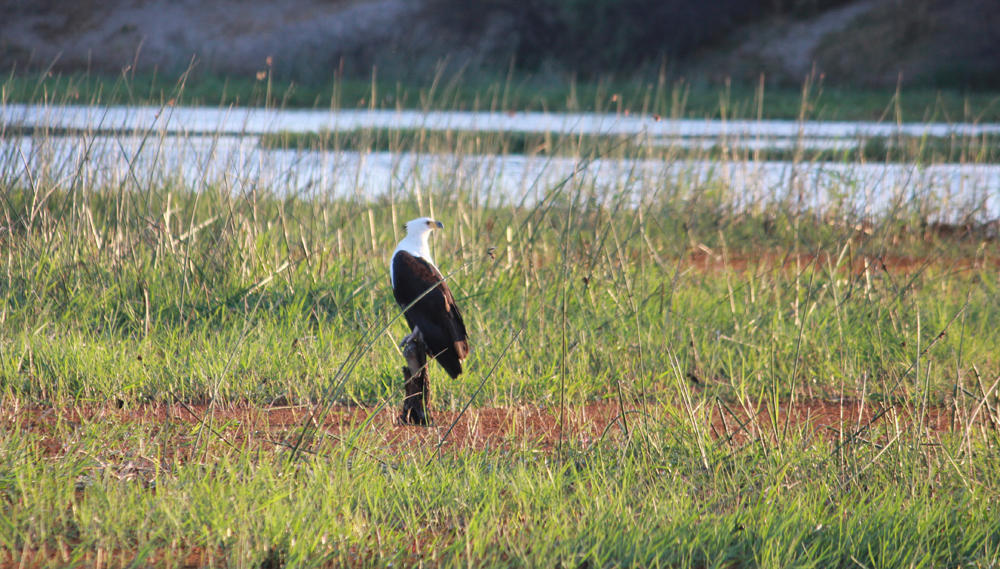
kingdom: Animalia
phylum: Chordata
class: Aves
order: Accipitriformes
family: Accipitridae
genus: Haliaeetus
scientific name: Haliaeetus vocifer
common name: African fish eagle
